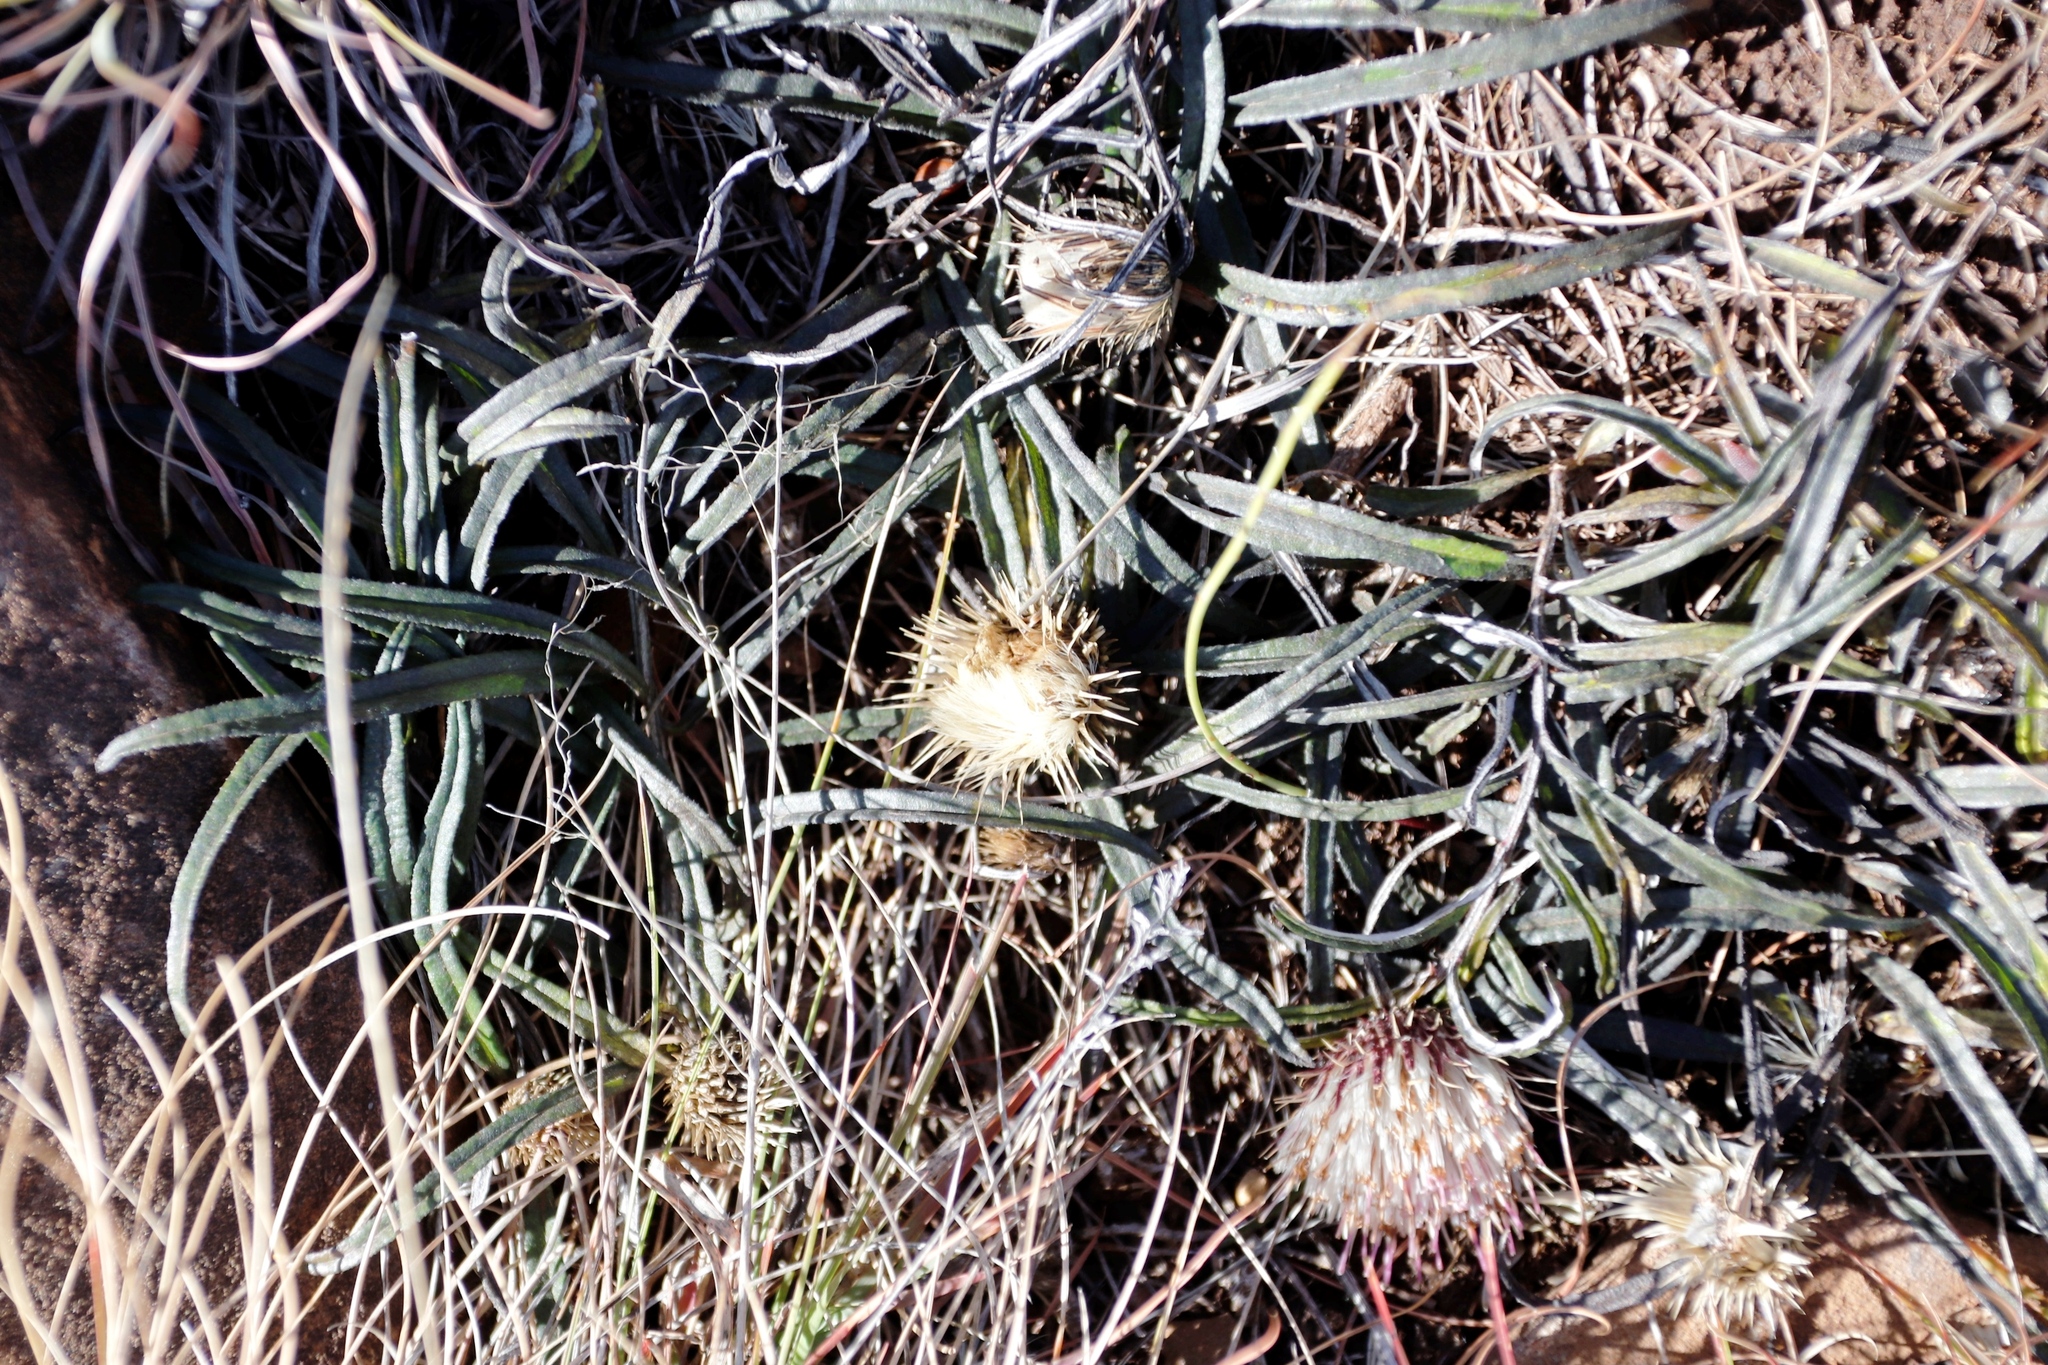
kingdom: Plantae
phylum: Tracheophyta
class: Magnoliopsida
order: Asterales
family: Asteraceae
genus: Dicoma
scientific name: Dicoma anomala
